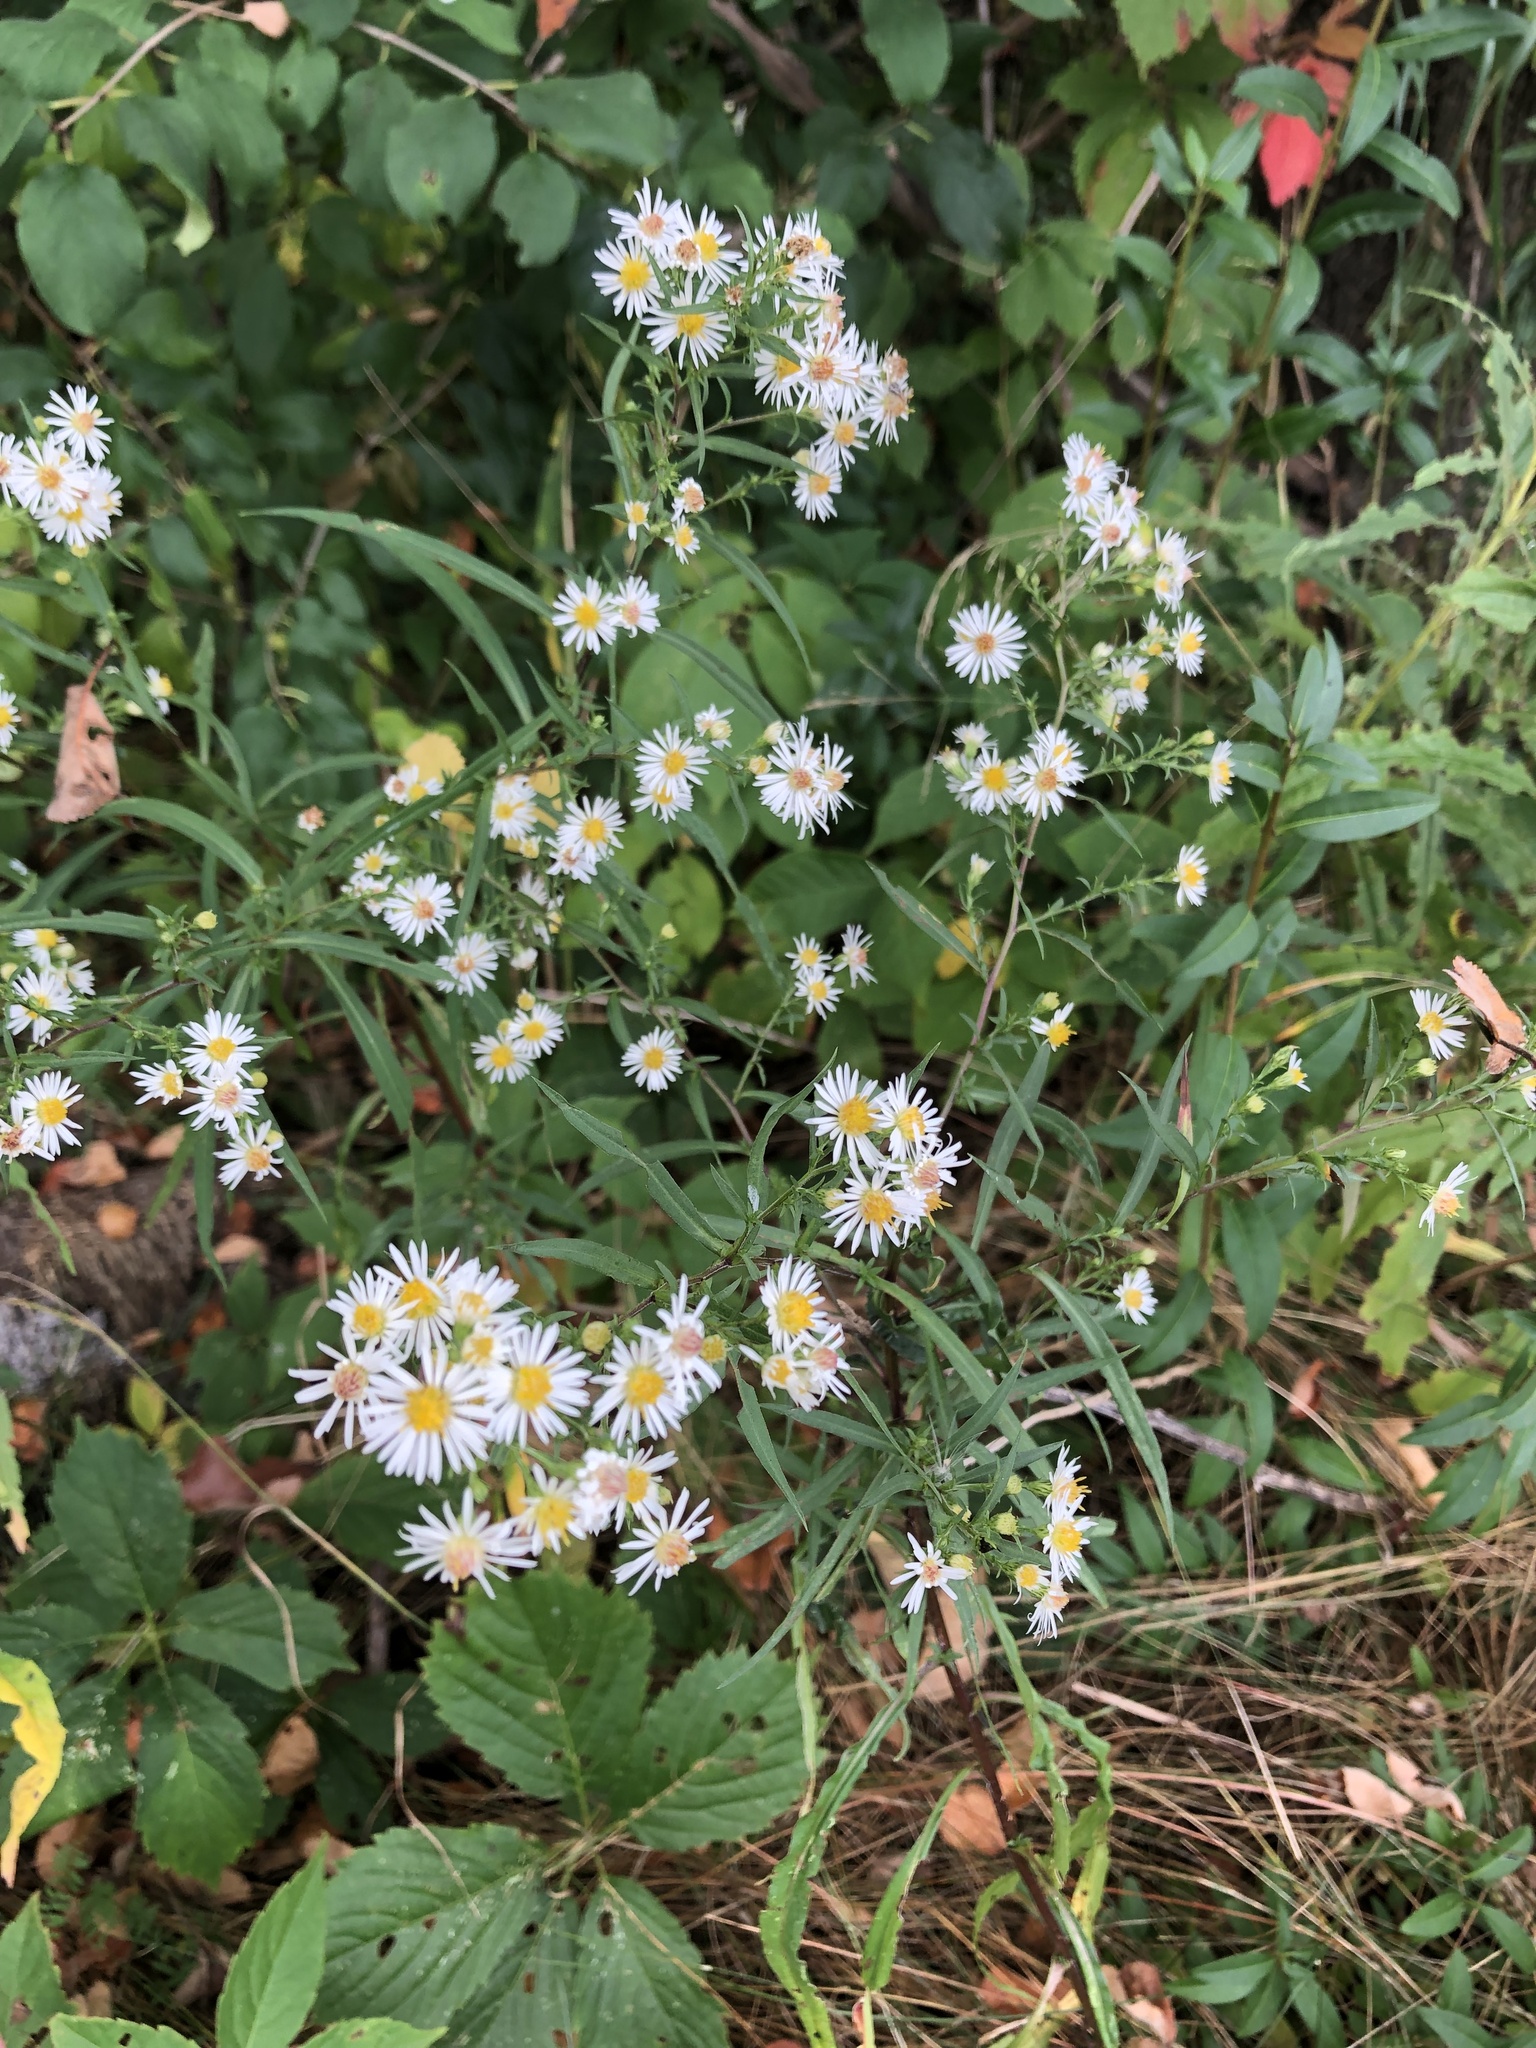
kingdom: Plantae
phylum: Tracheophyta
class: Magnoliopsida
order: Asterales
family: Asteraceae
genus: Symphyotrichum
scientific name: Symphyotrichum lanceolatum
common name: Panicled aster
